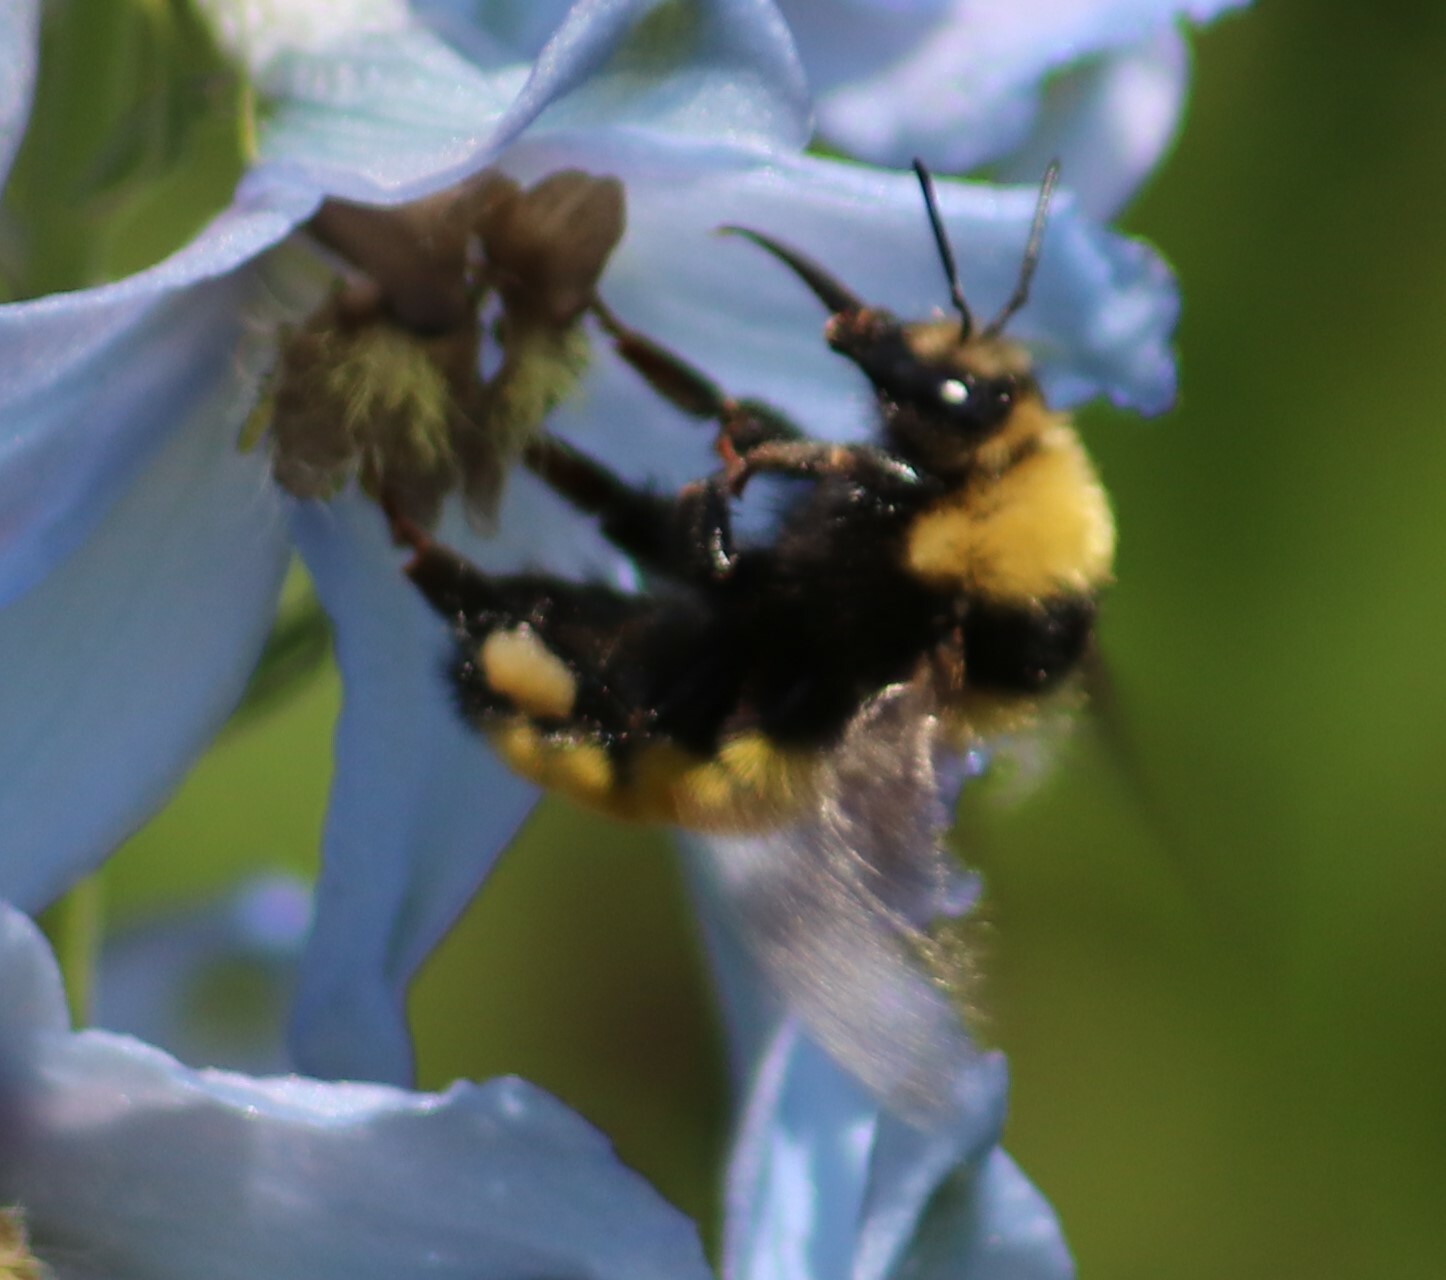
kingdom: Animalia
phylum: Arthropoda
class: Insecta
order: Hymenoptera
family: Apidae
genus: Bombus
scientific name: Bombus borealis
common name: Northern amber bumble bee
